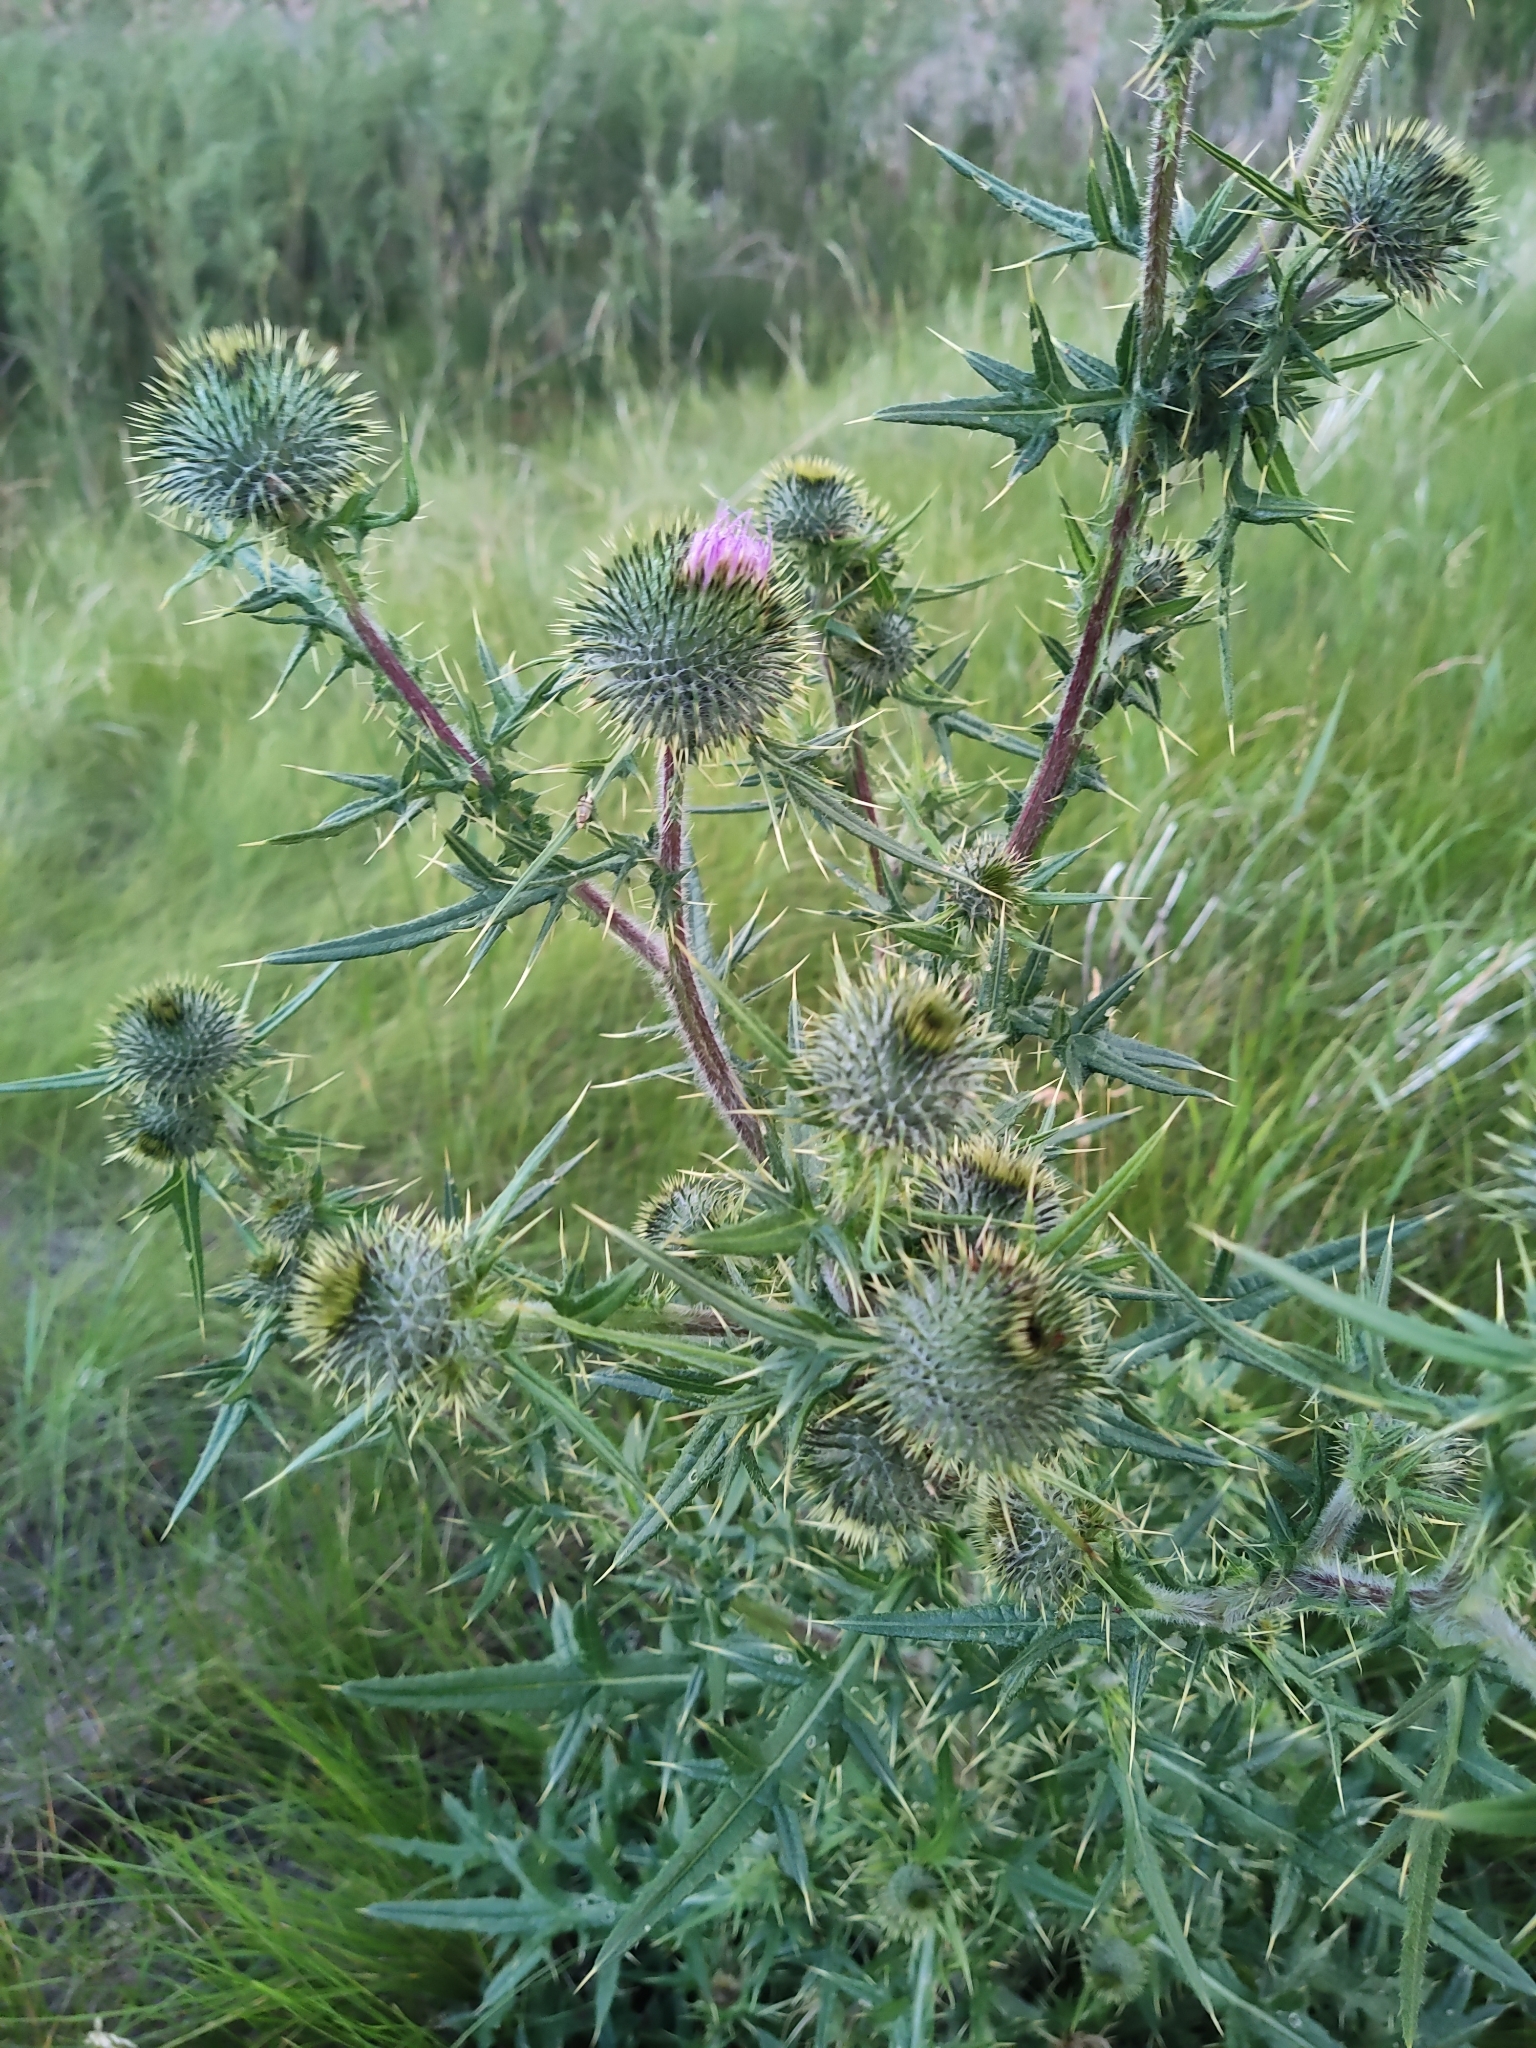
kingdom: Plantae
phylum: Tracheophyta
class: Magnoliopsida
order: Asterales
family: Asteraceae
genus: Cirsium
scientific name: Cirsium vulgare
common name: Bull thistle
